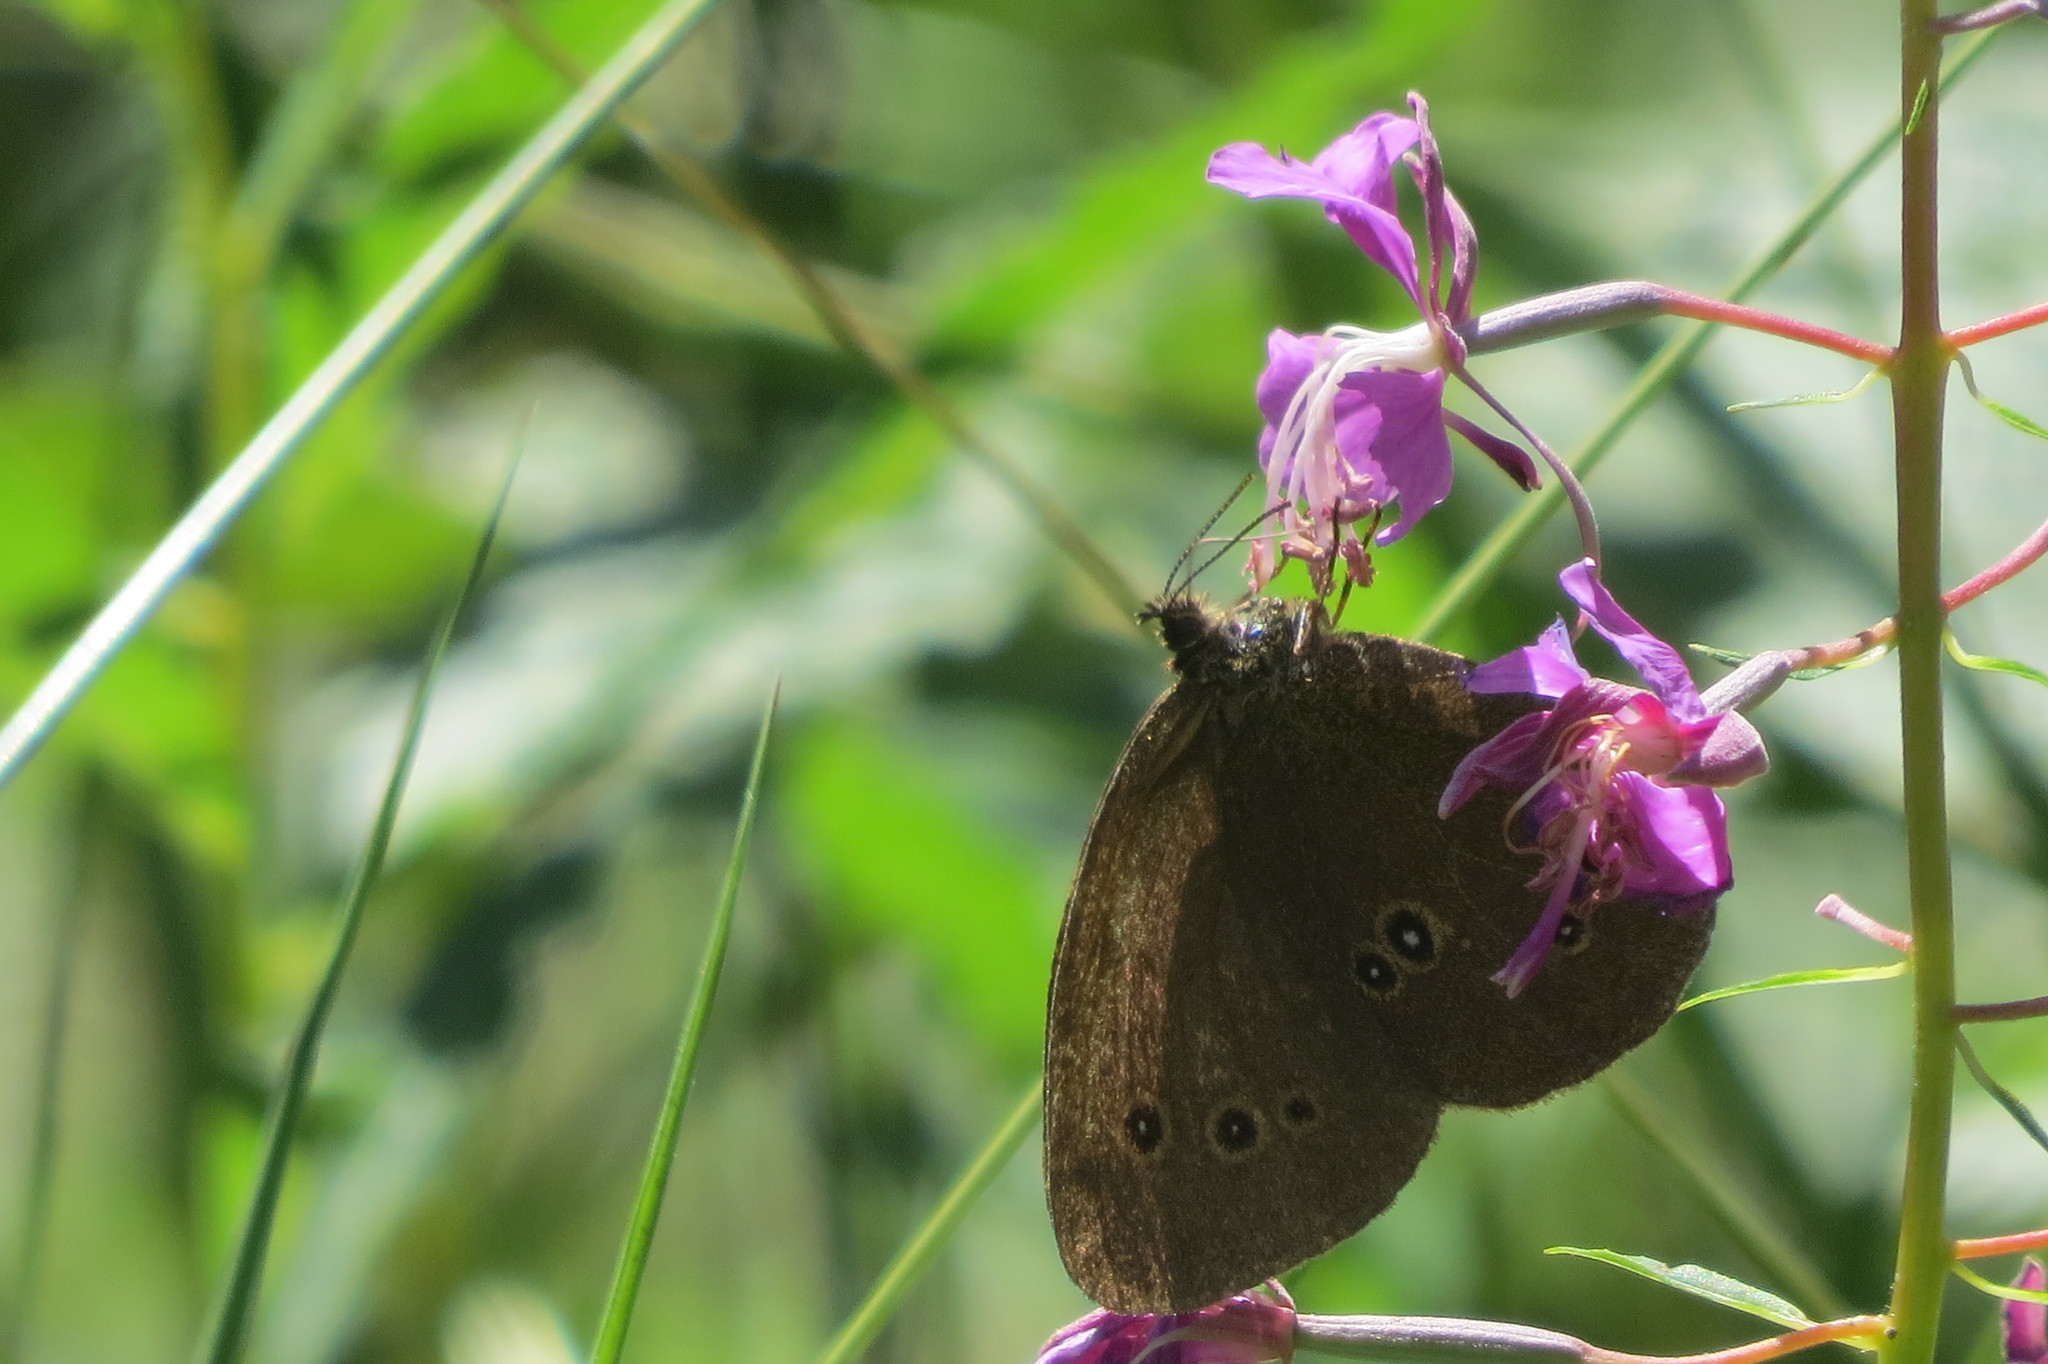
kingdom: Animalia
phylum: Arthropoda
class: Insecta
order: Lepidoptera
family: Nymphalidae
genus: Aphantopus
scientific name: Aphantopus hyperantus
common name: Ringlet
